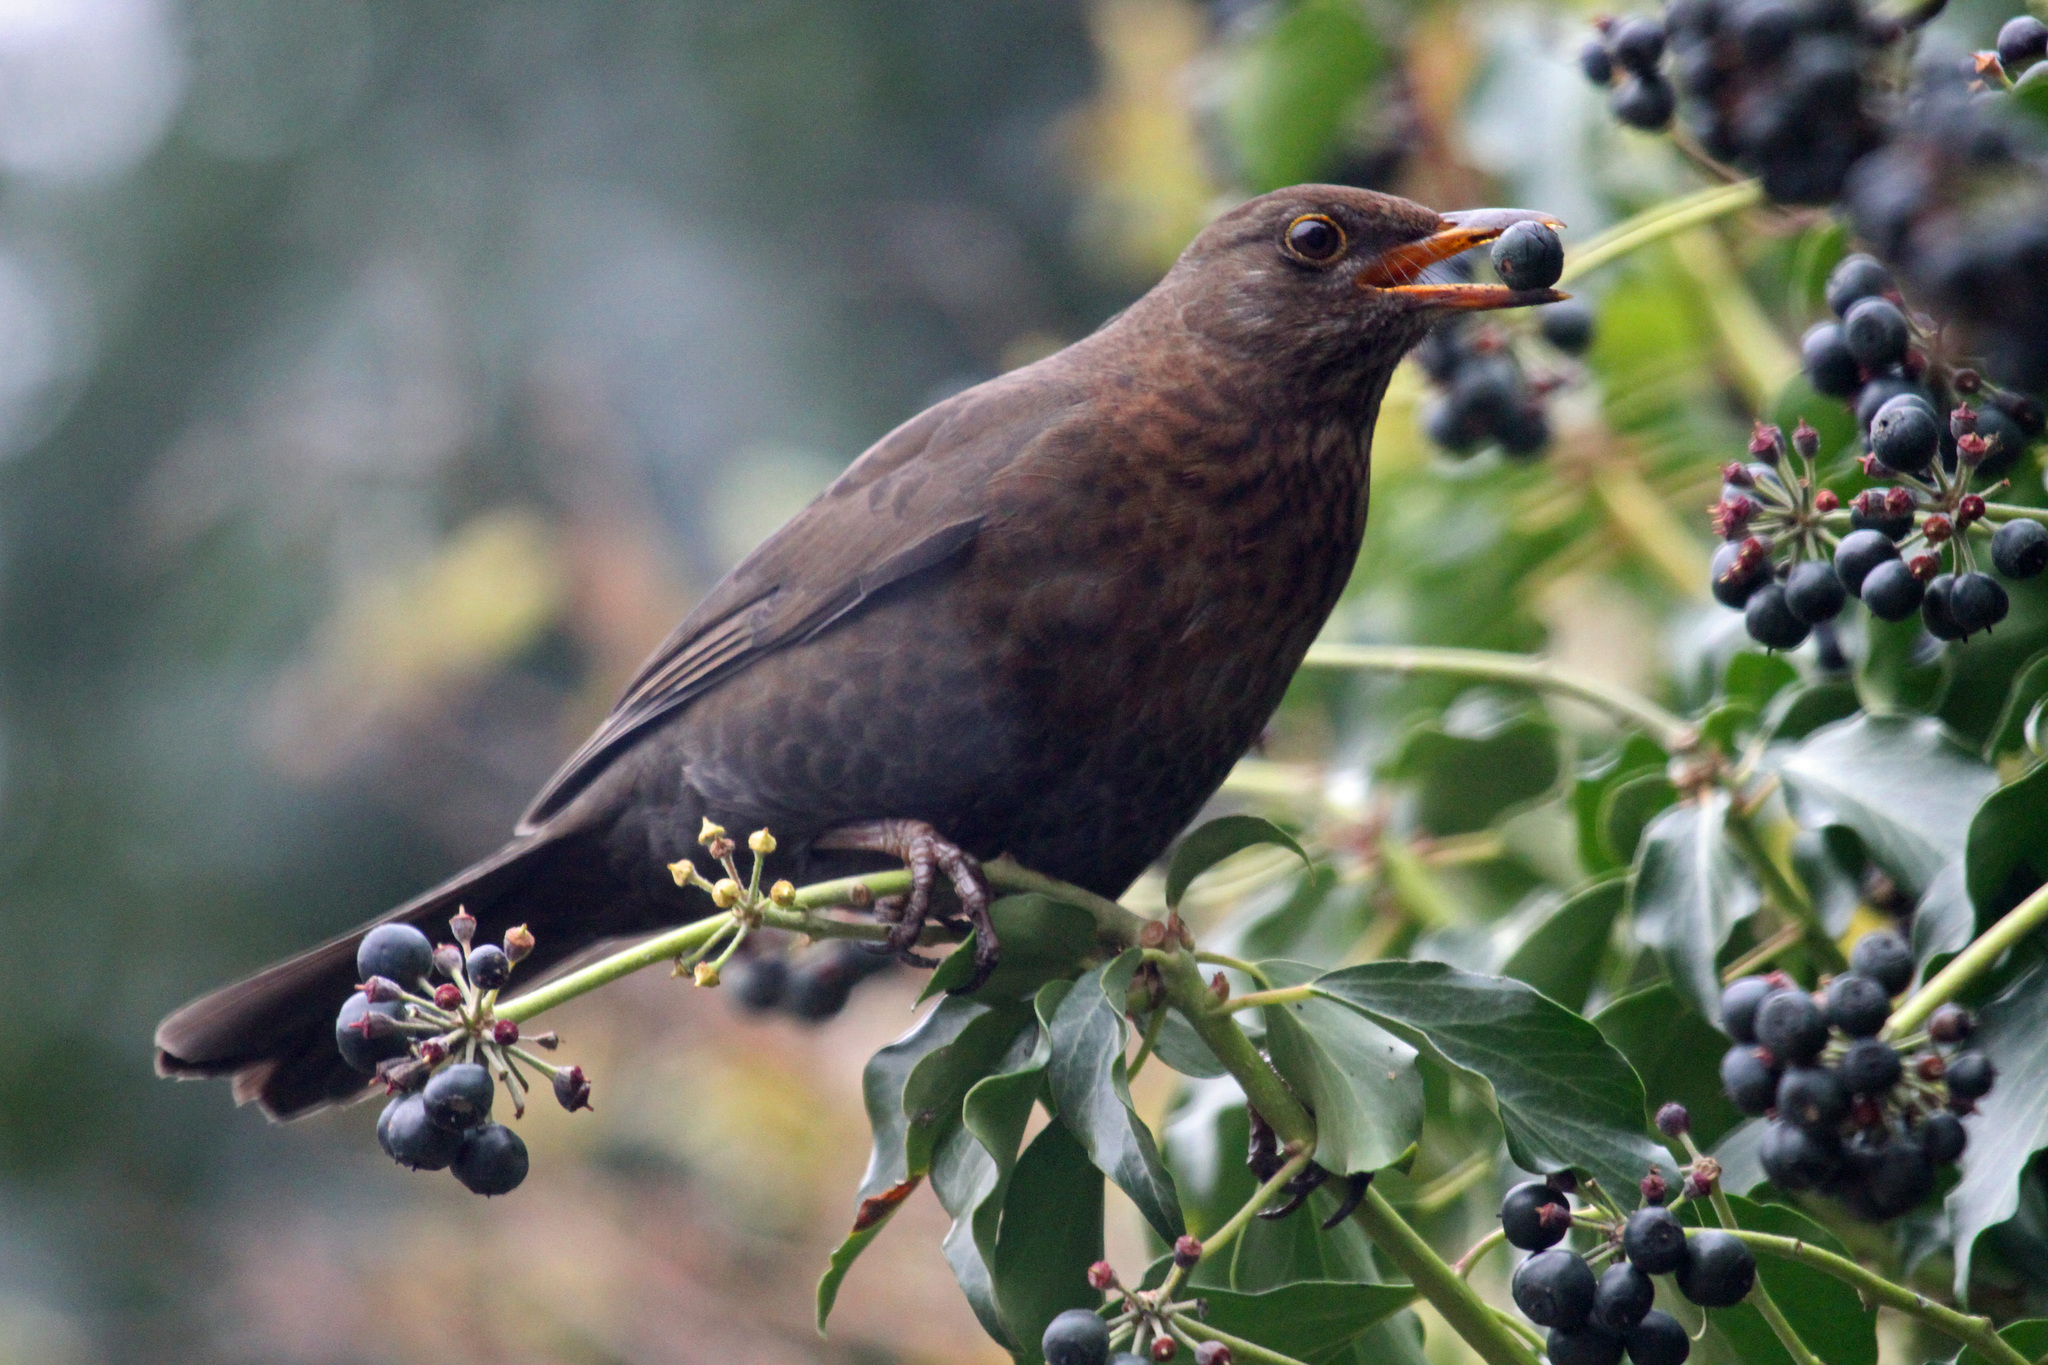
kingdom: Animalia
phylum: Chordata
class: Aves
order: Passeriformes
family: Turdidae
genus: Turdus
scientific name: Turdus merula
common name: Common blackbird
